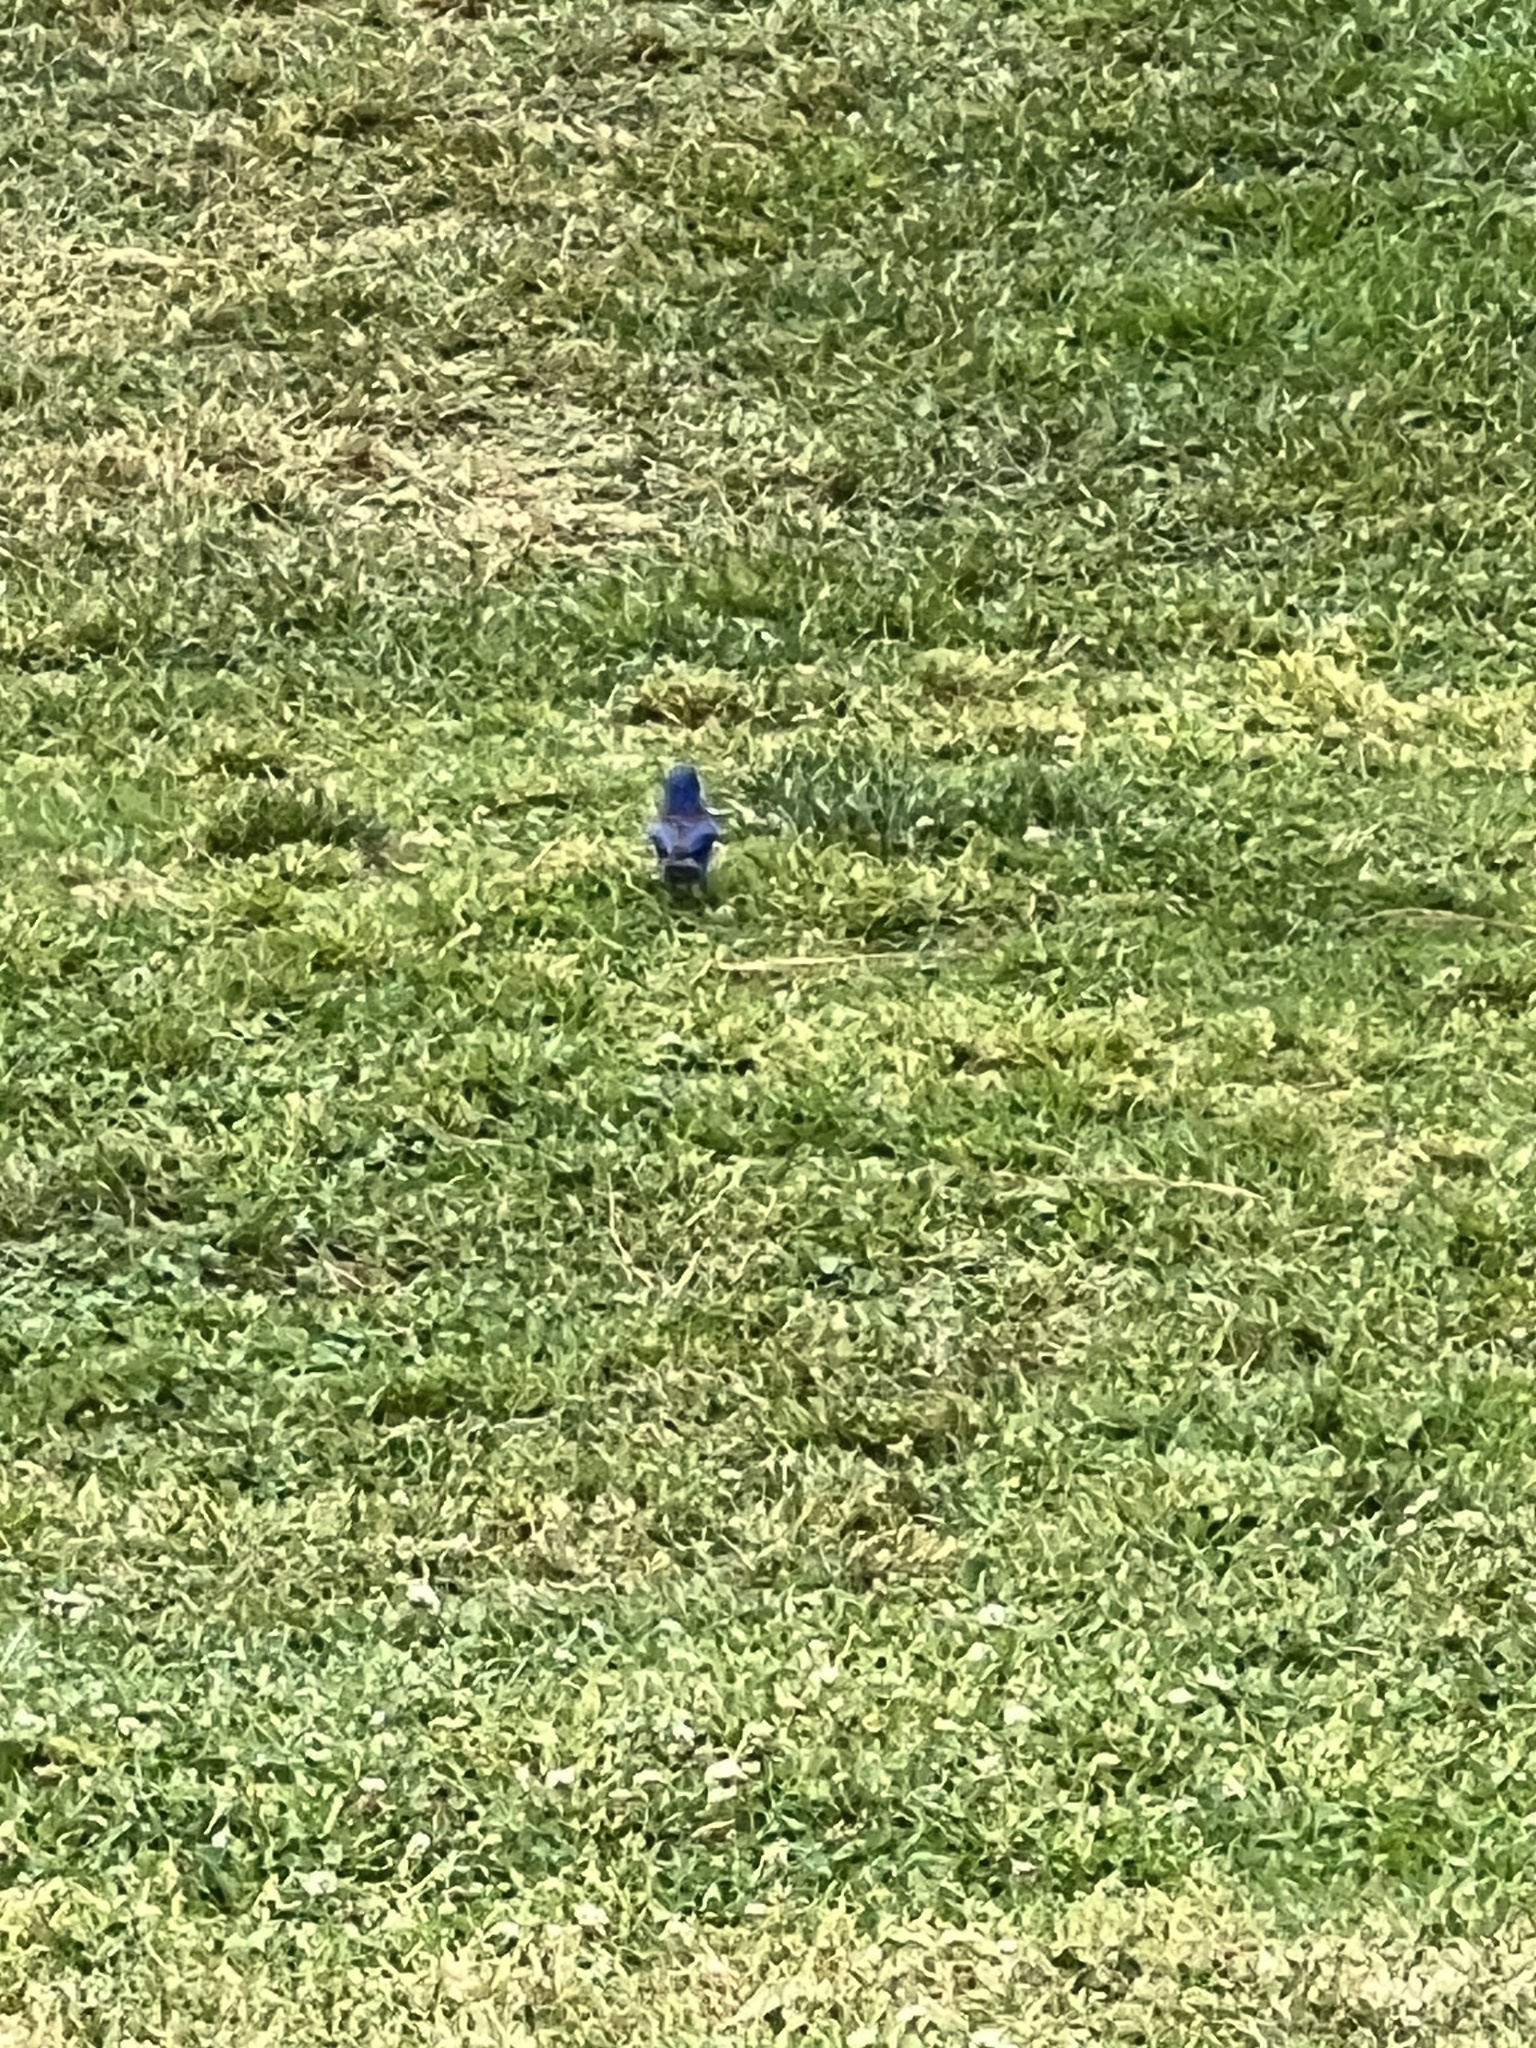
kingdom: Animalia
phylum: Chordata
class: Aves
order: Passeriformes
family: Turdidae
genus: Sialia
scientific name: Sialia mexicana
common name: Western bluebird
